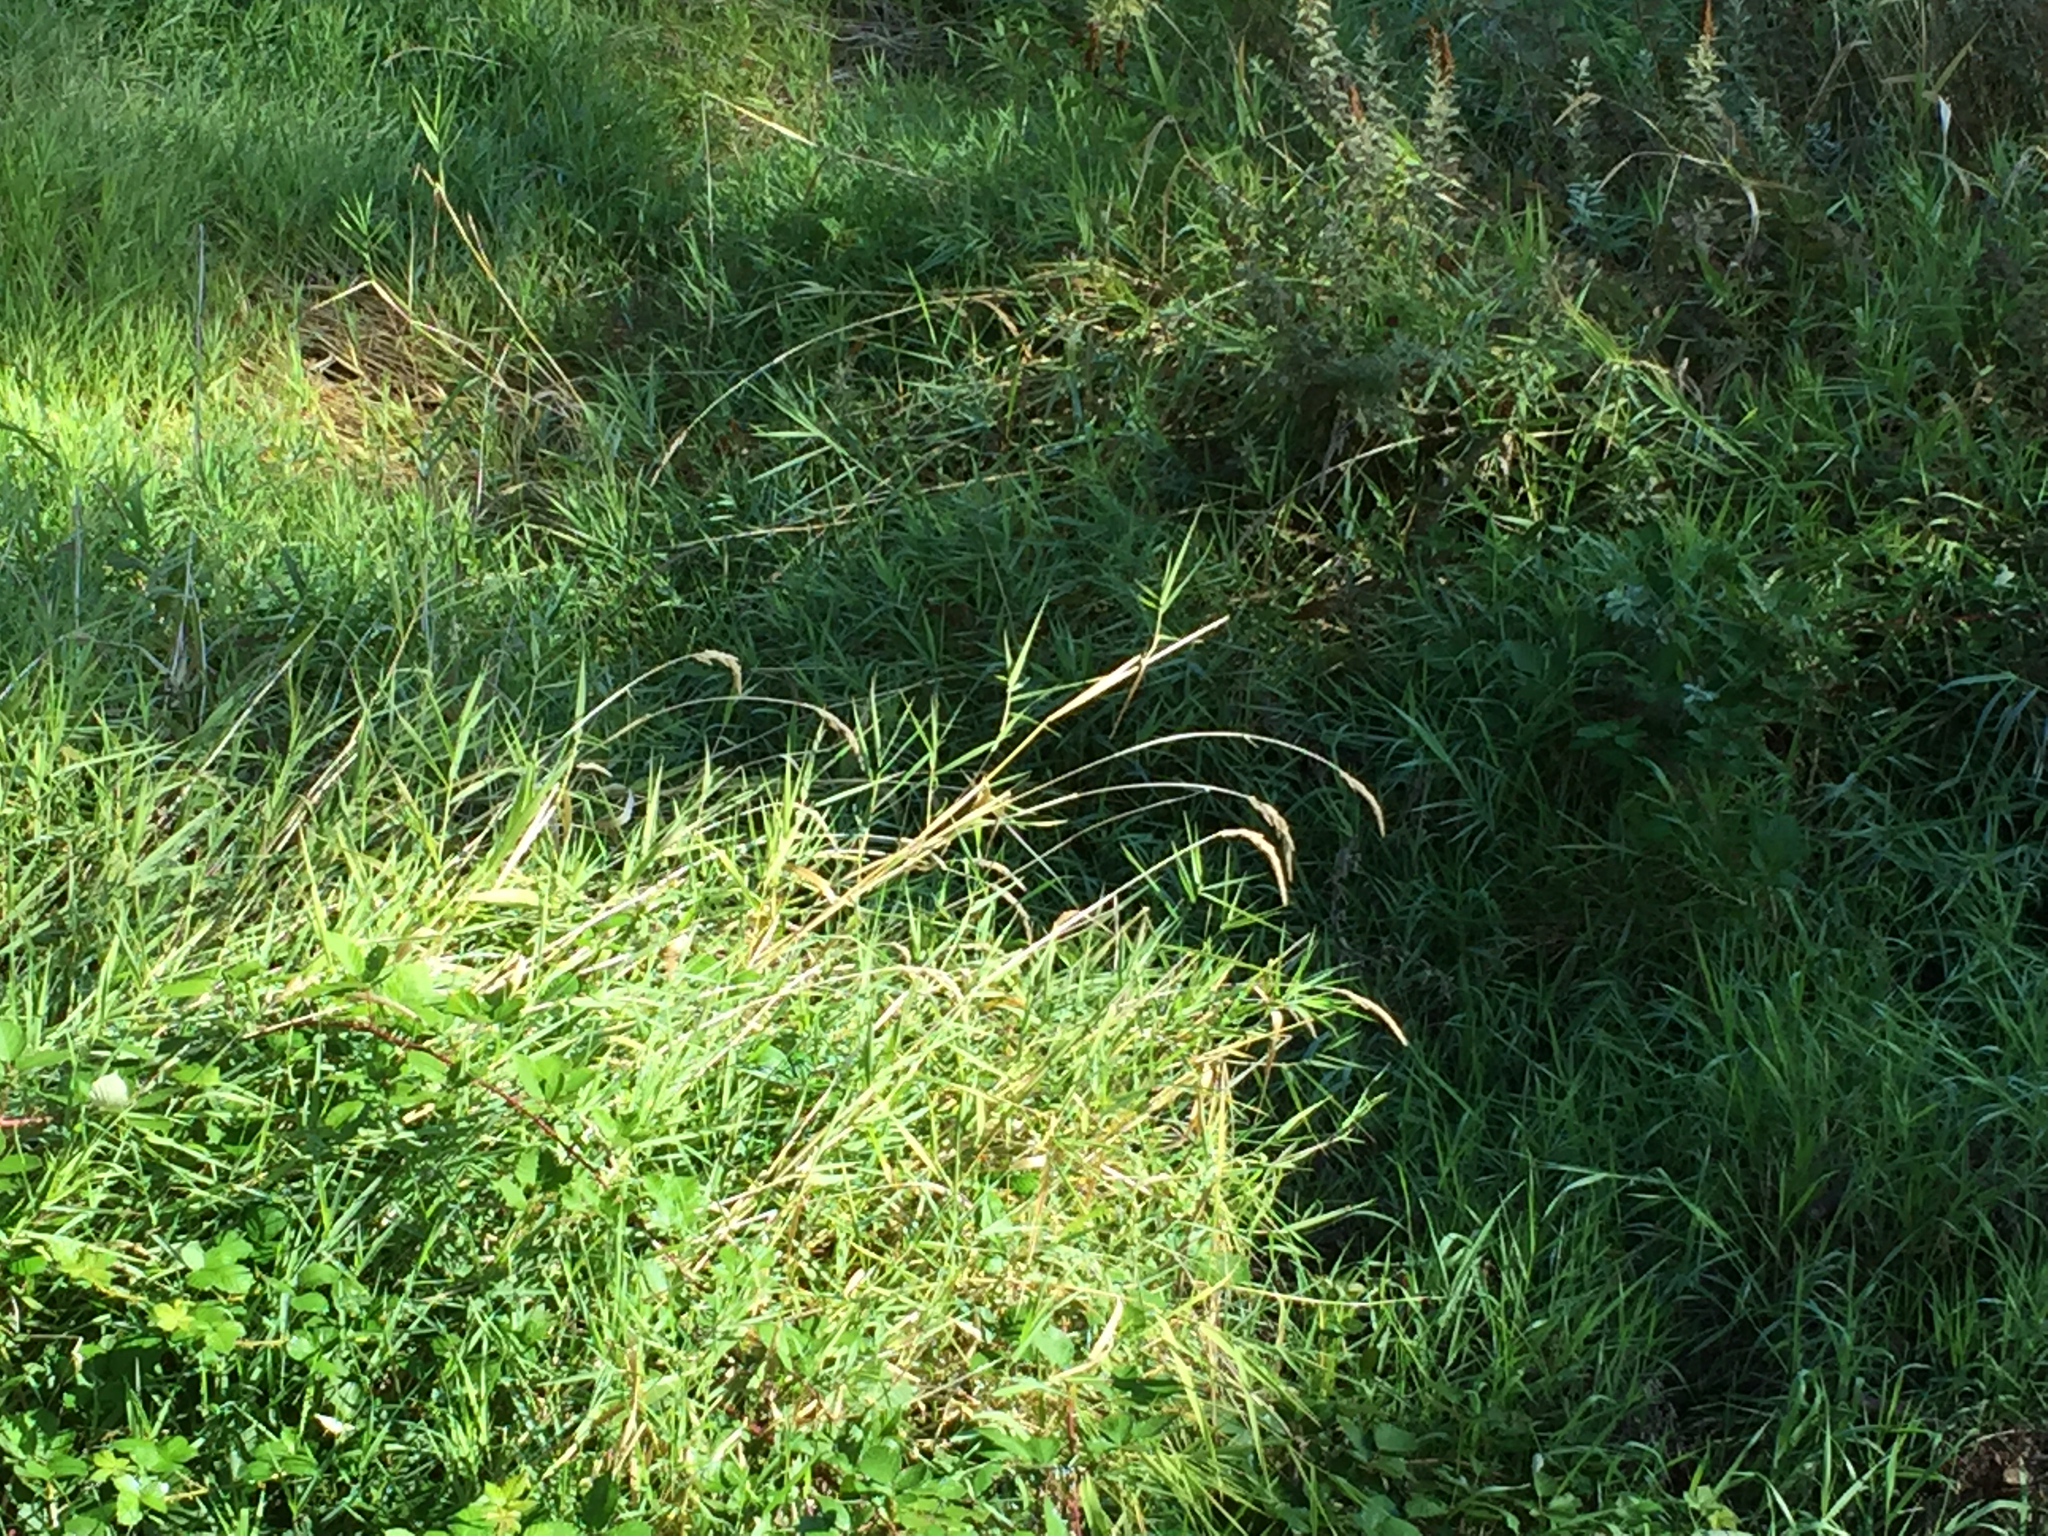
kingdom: Plantae
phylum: Tracheophyta
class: Liliopsida
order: Poales
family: Poaceae
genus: Phalaris
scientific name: Phalaris arundinacea
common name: Reed canary-grass
